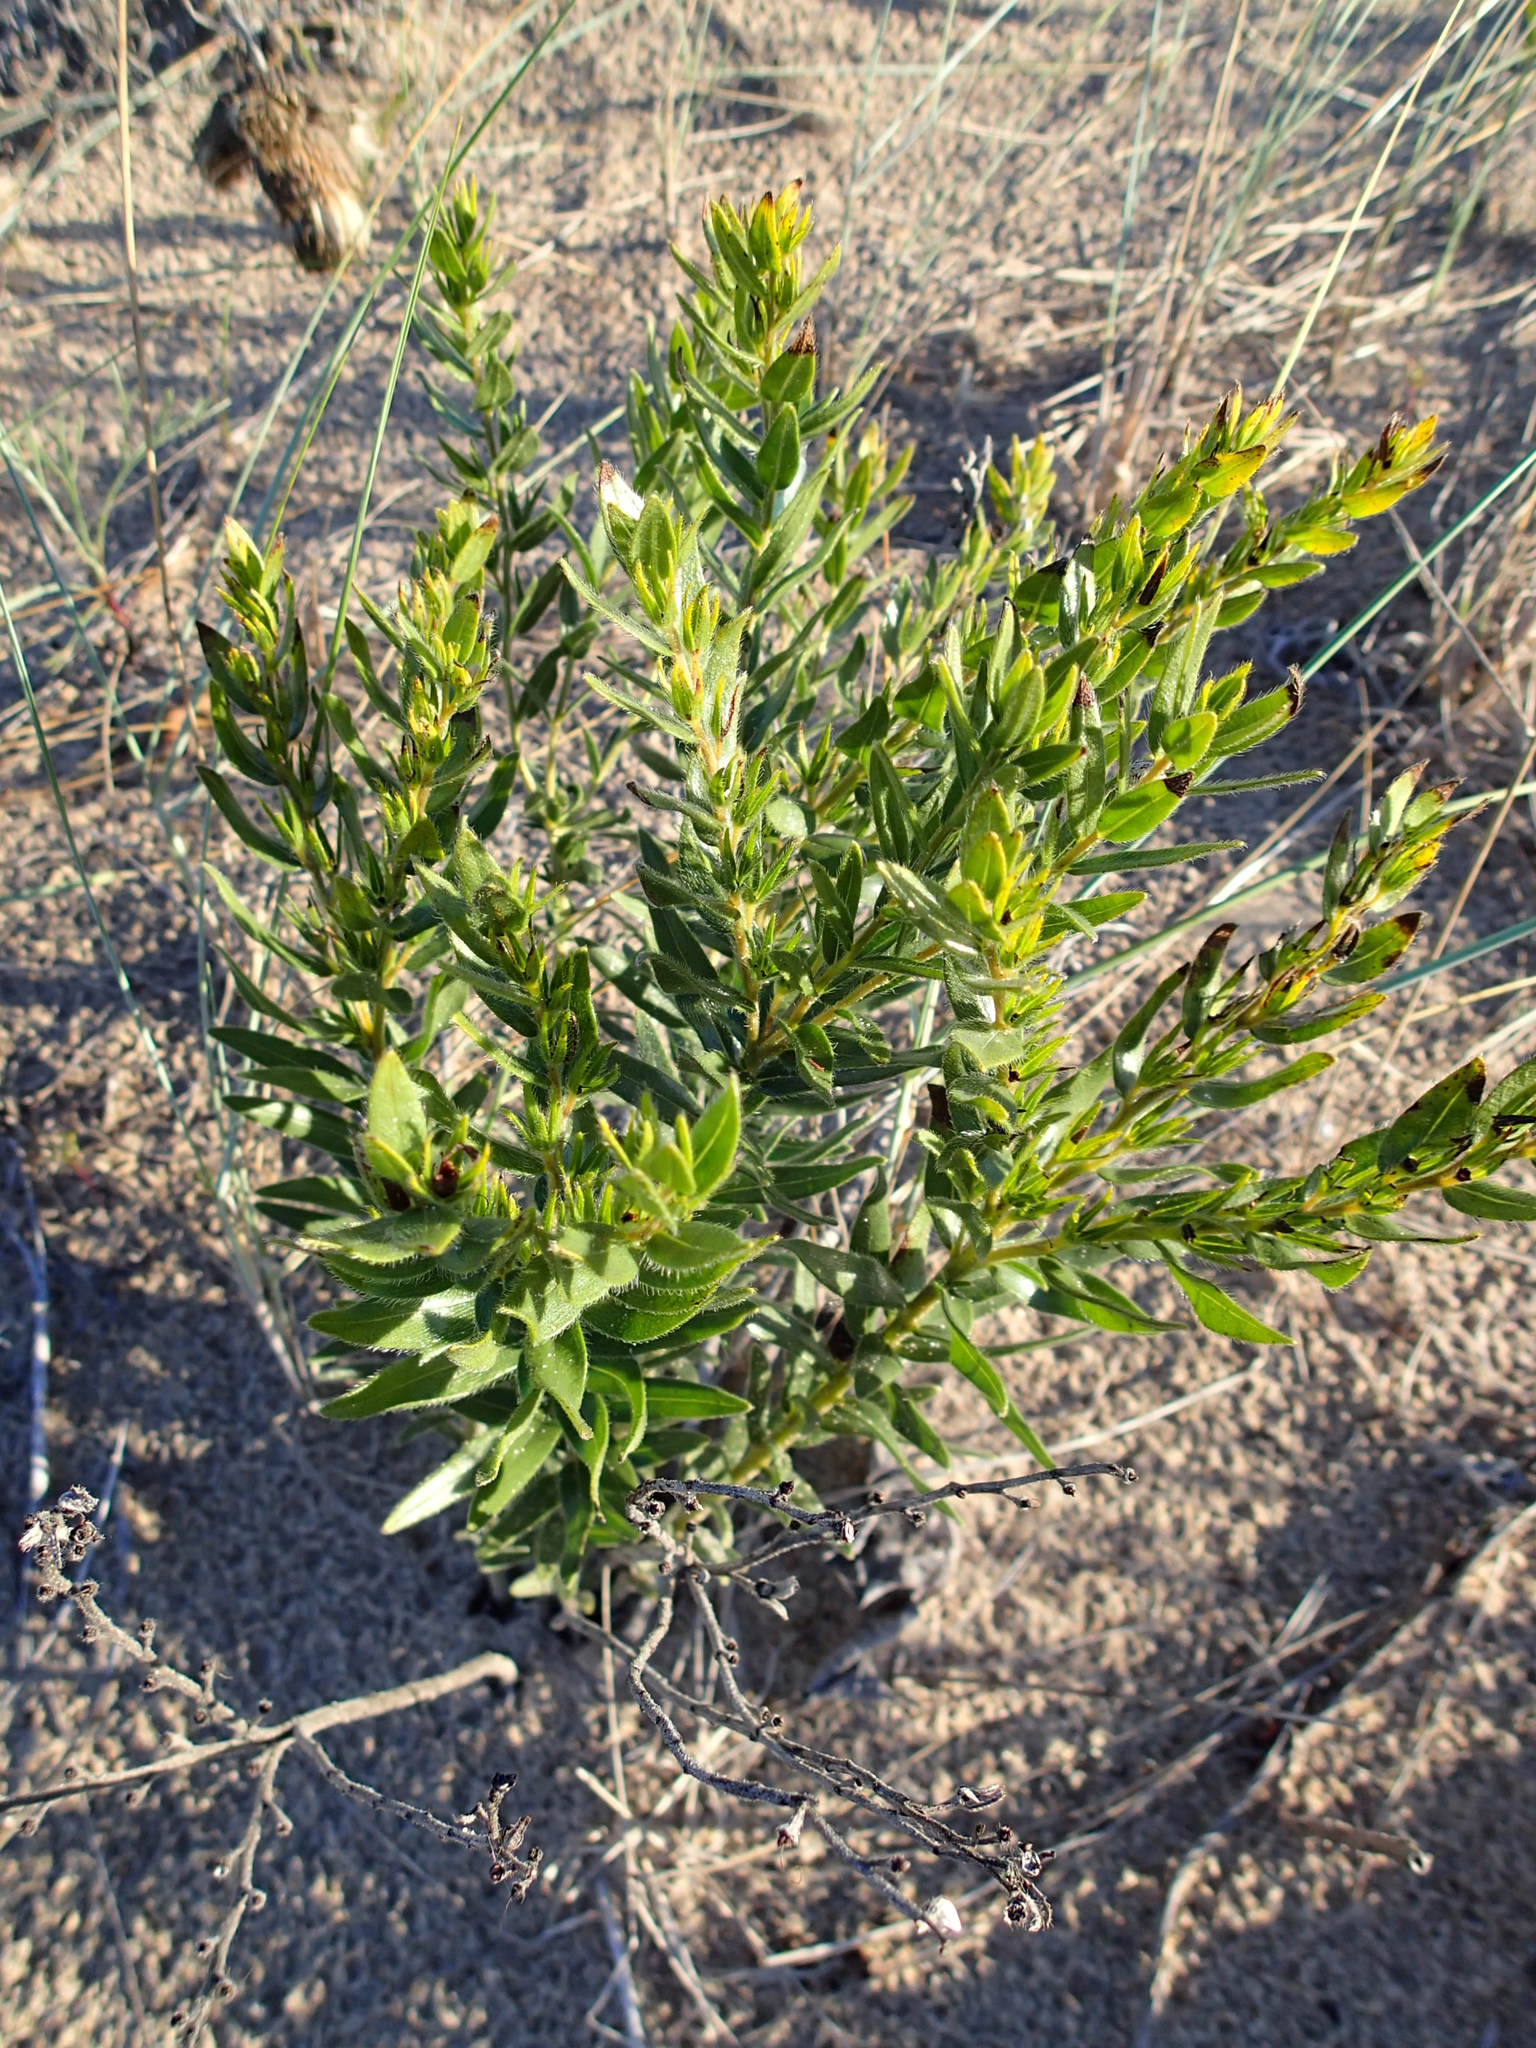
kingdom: Plantae
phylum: Tracheophyta
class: Magnoliopsida
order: Boraginales
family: Boraginaceae
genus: Lithospermum
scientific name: Lithospermum caroliniense
